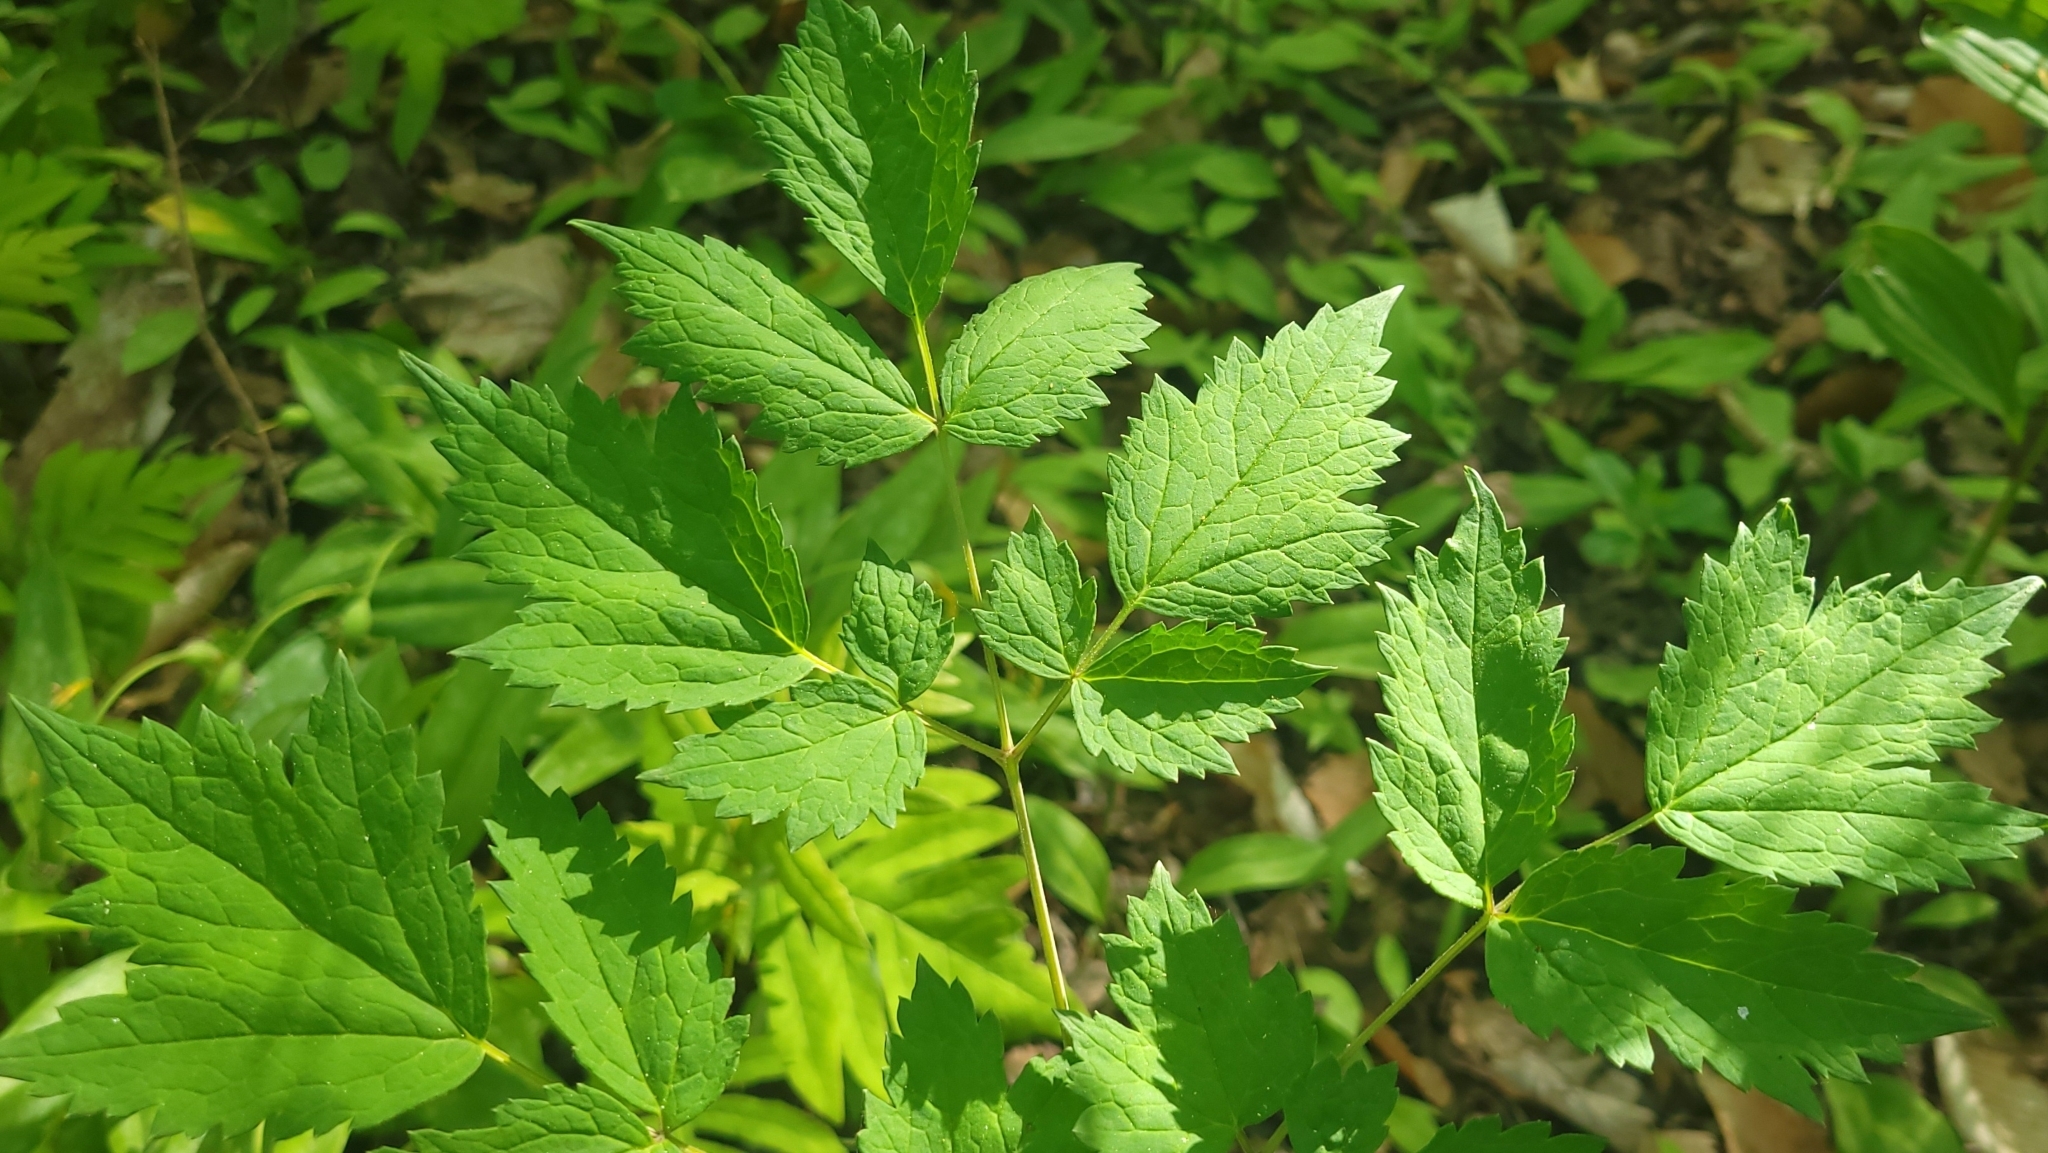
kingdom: Plantae
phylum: Tracheophyta
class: Magnoliopsida
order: Ranunculales
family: Ranunculaceae
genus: Actaea
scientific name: Actaea rubra
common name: Red baneberry
